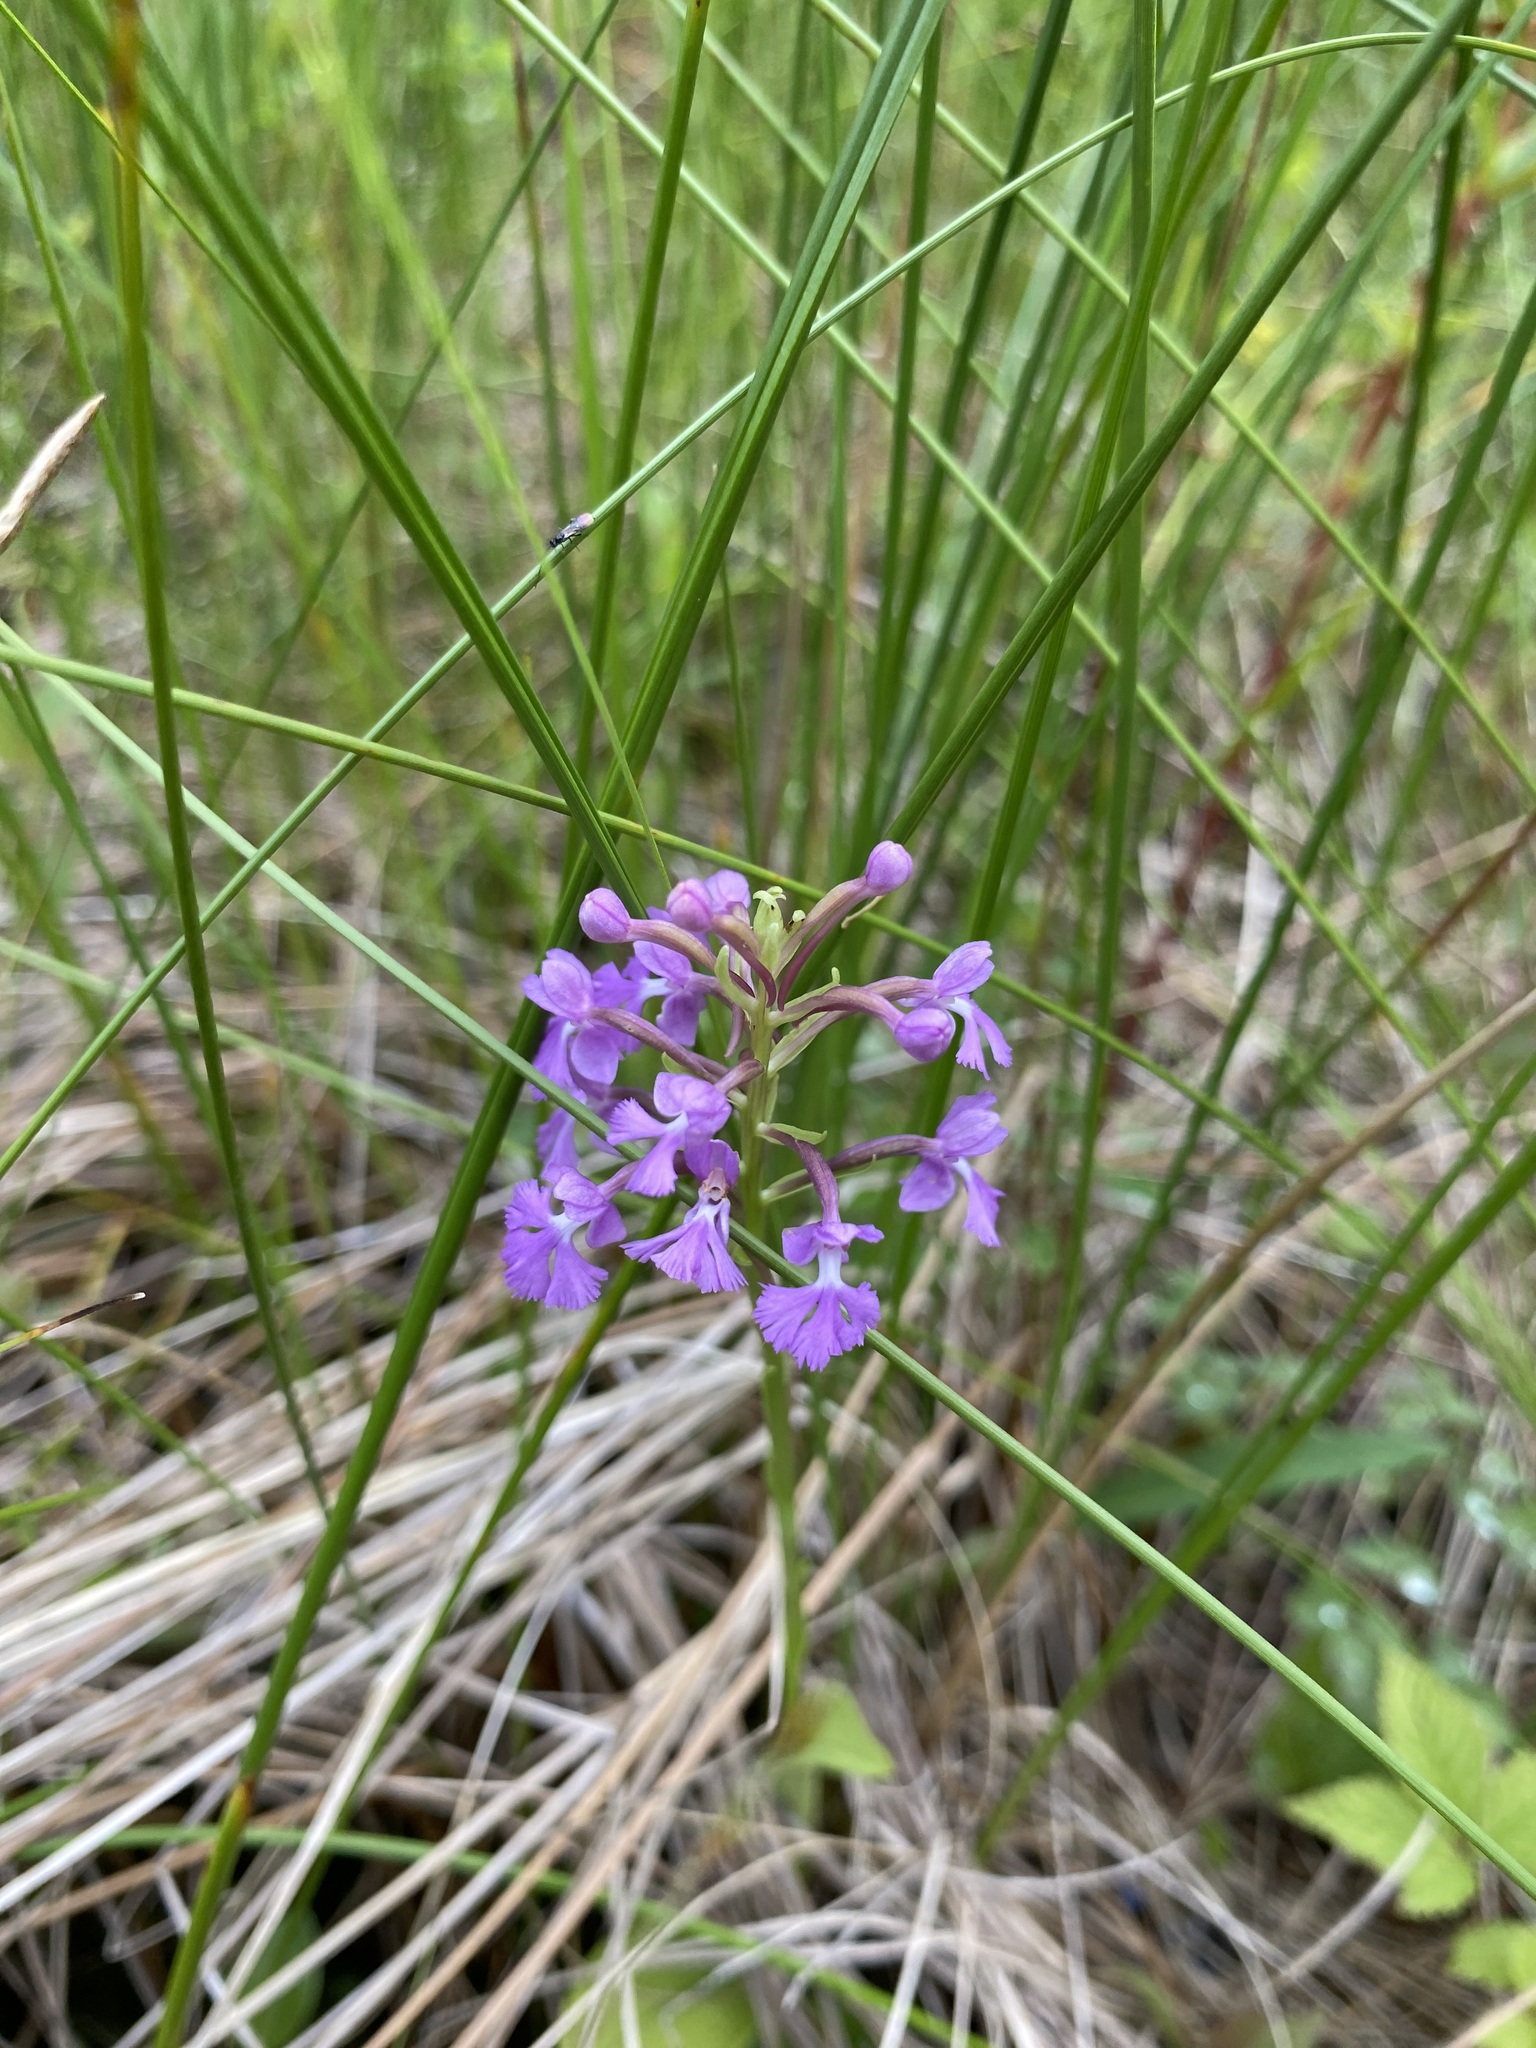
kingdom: Plantae
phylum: Tracheophyta
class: Liliopsida
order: Asparagales
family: Orchidaceae
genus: Platanthera
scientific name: Platanthera psycodes
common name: Lesser purple fringed orchid
